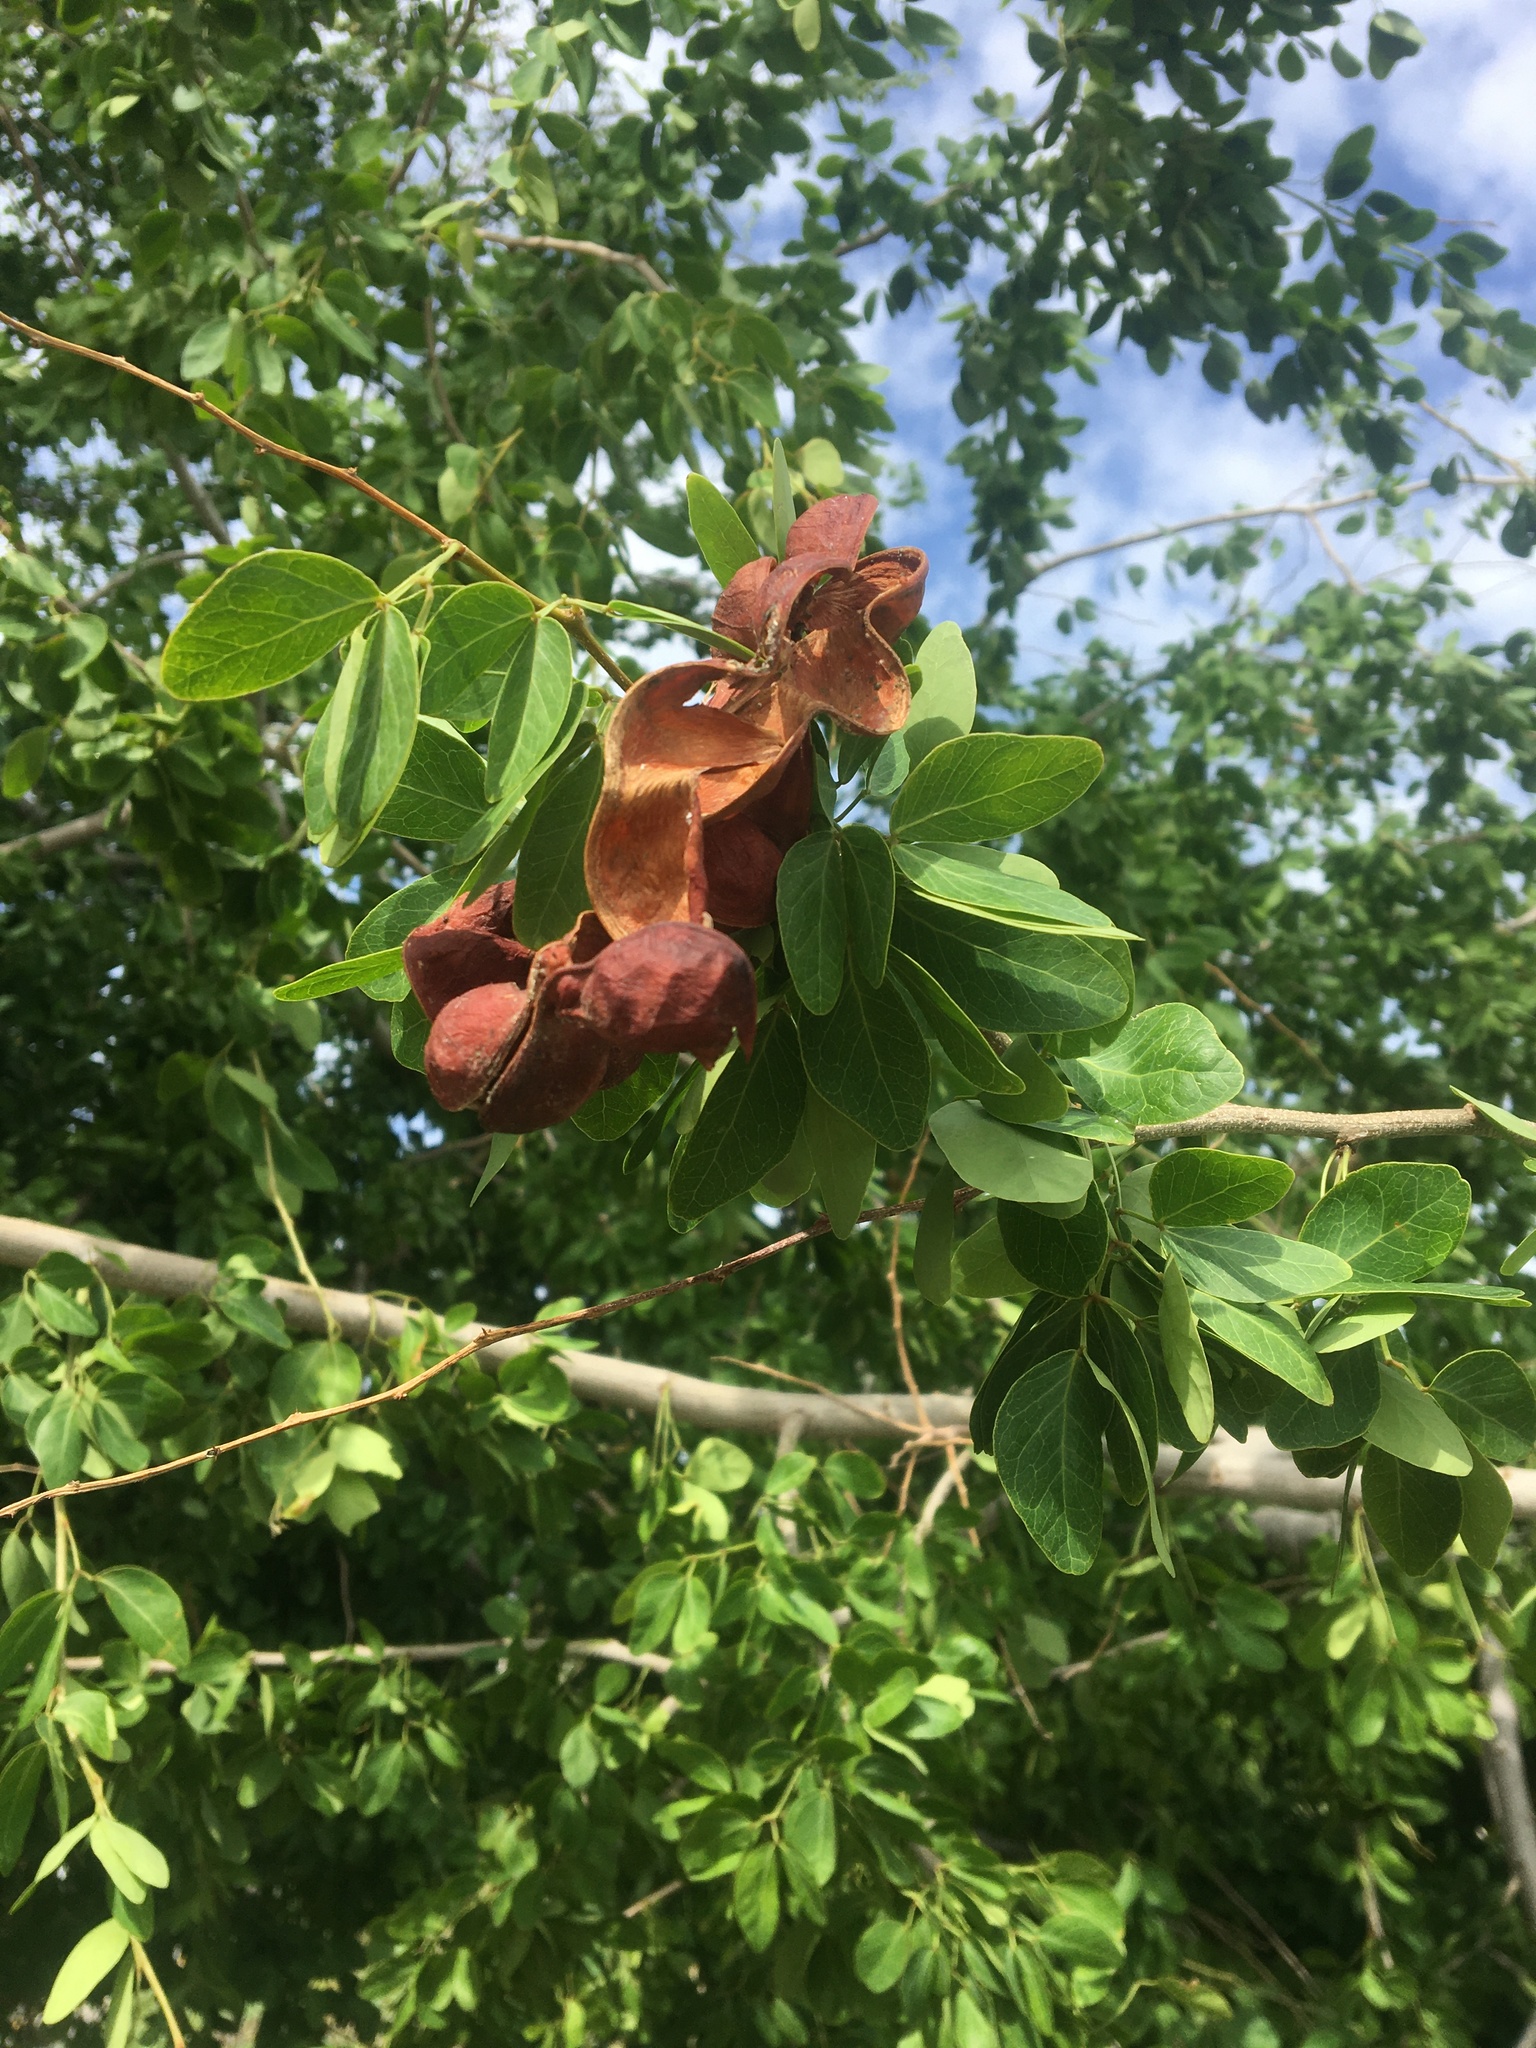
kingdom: Plantae
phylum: Tracheophyta
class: Magnoliopsida
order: Fabales
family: Fabaceae
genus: Pithecellobium
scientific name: Pithecellobium dulce
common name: Monkeypod
